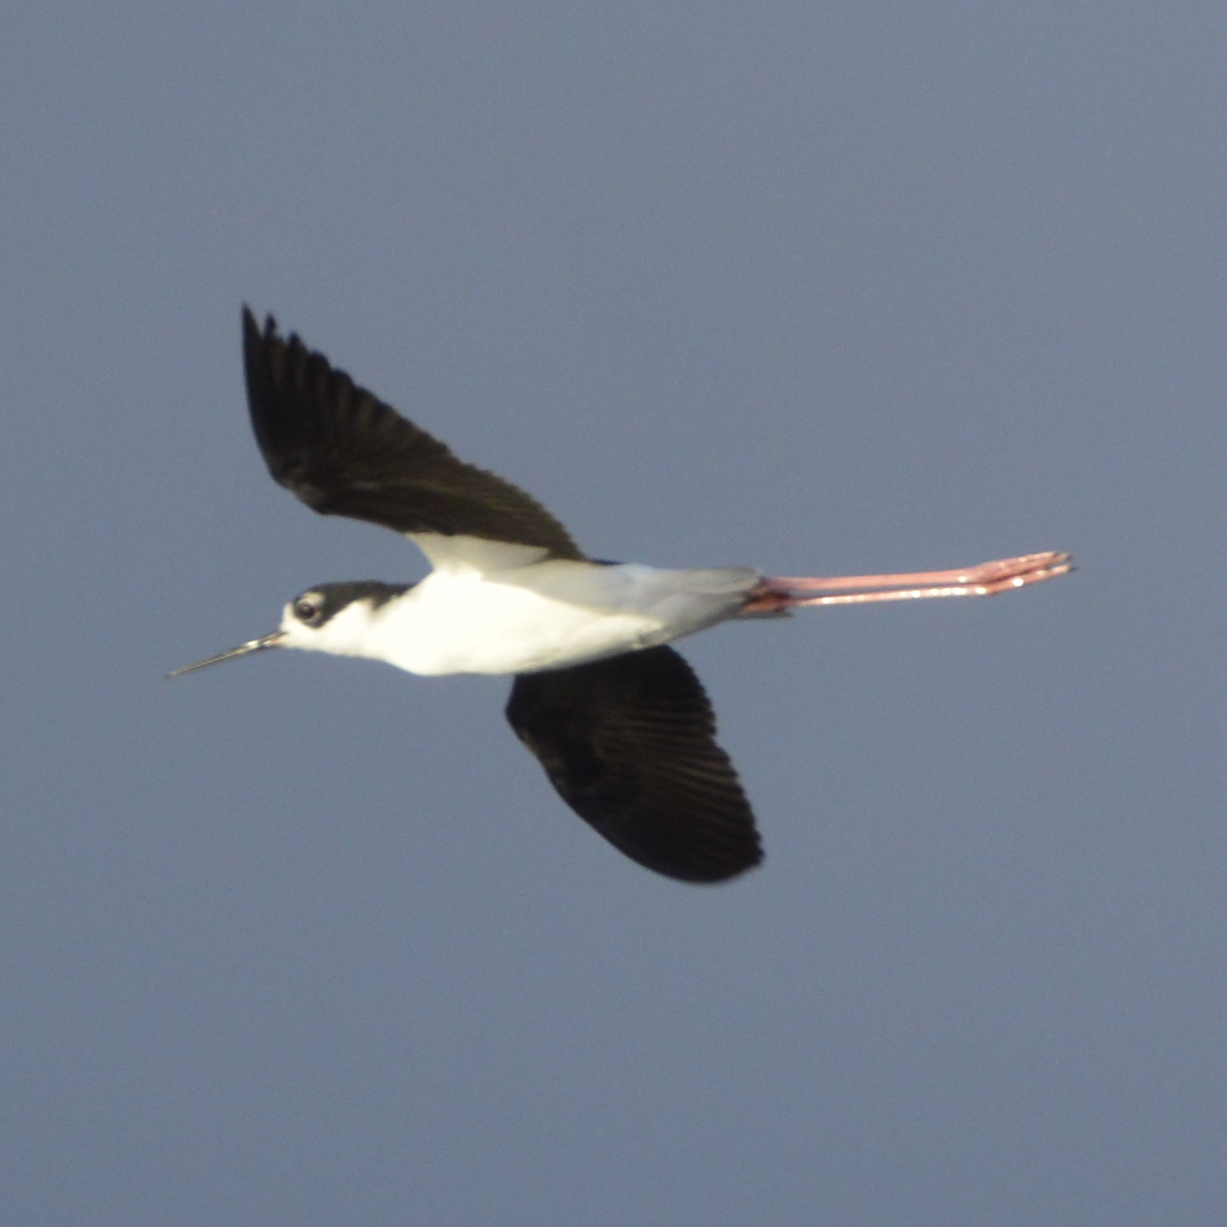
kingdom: Animalia
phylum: Chordata
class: Aves
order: Charadriiformes
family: Recurvirostridae
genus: Himantopus
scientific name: Himantopus mexicanus
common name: Black-necked stilt
